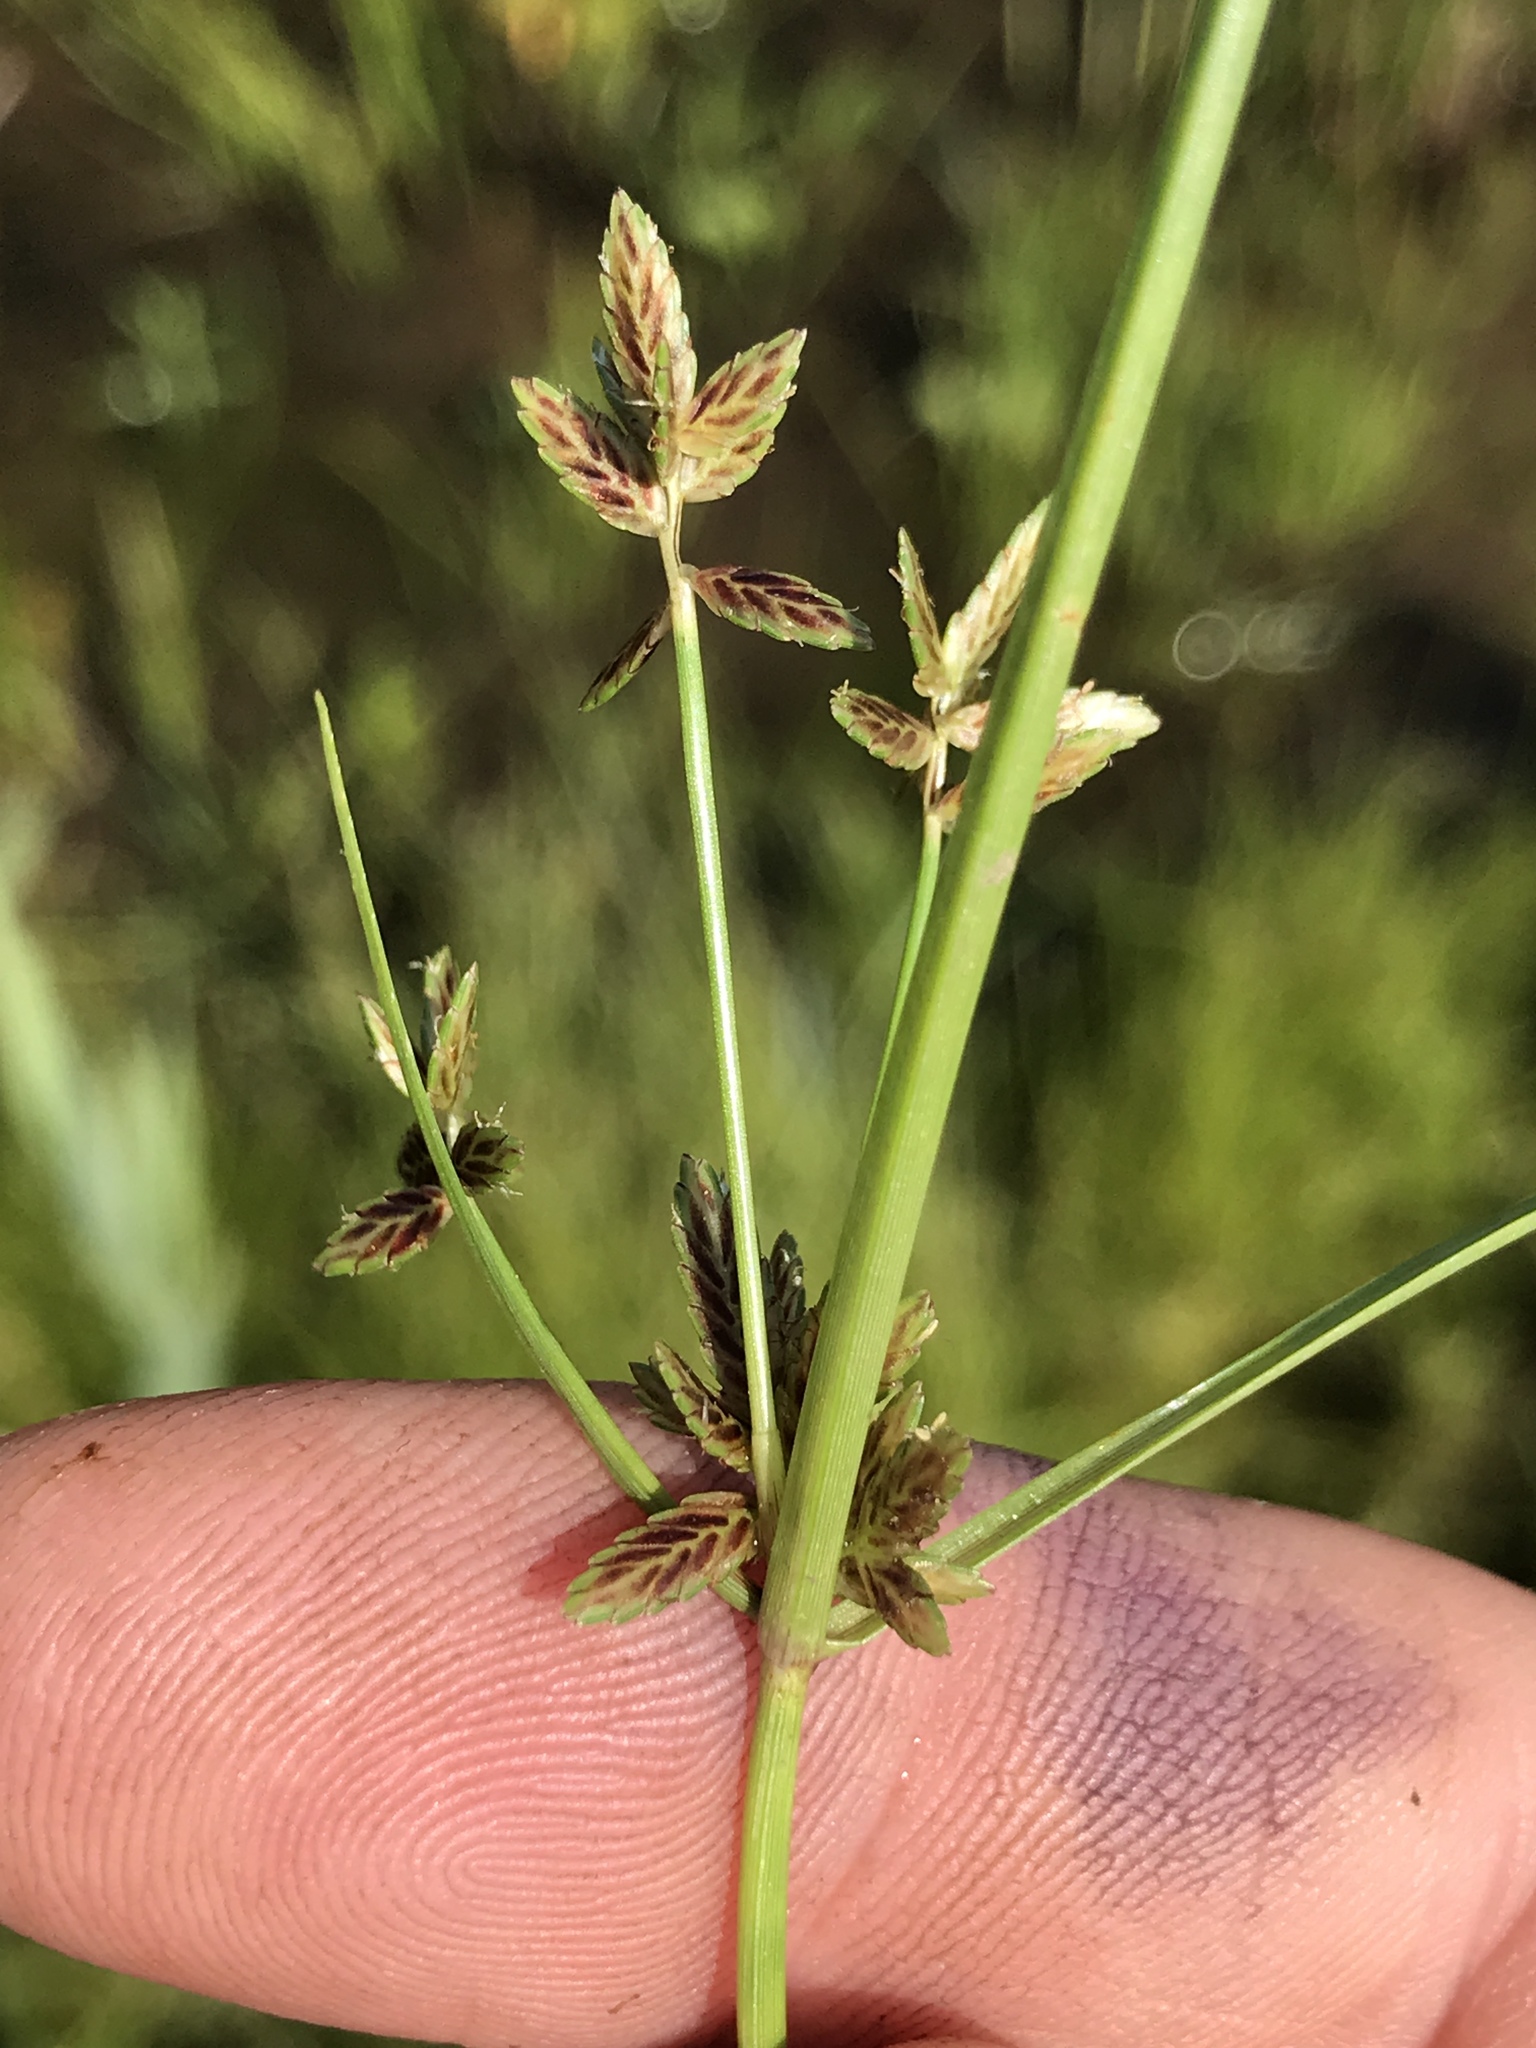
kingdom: Plantae
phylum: Tracheophyta
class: Liliopsida
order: Poales
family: Cyperaceae
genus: Cyperus
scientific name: Cyperus bipartitus
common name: Brook flatsedge
